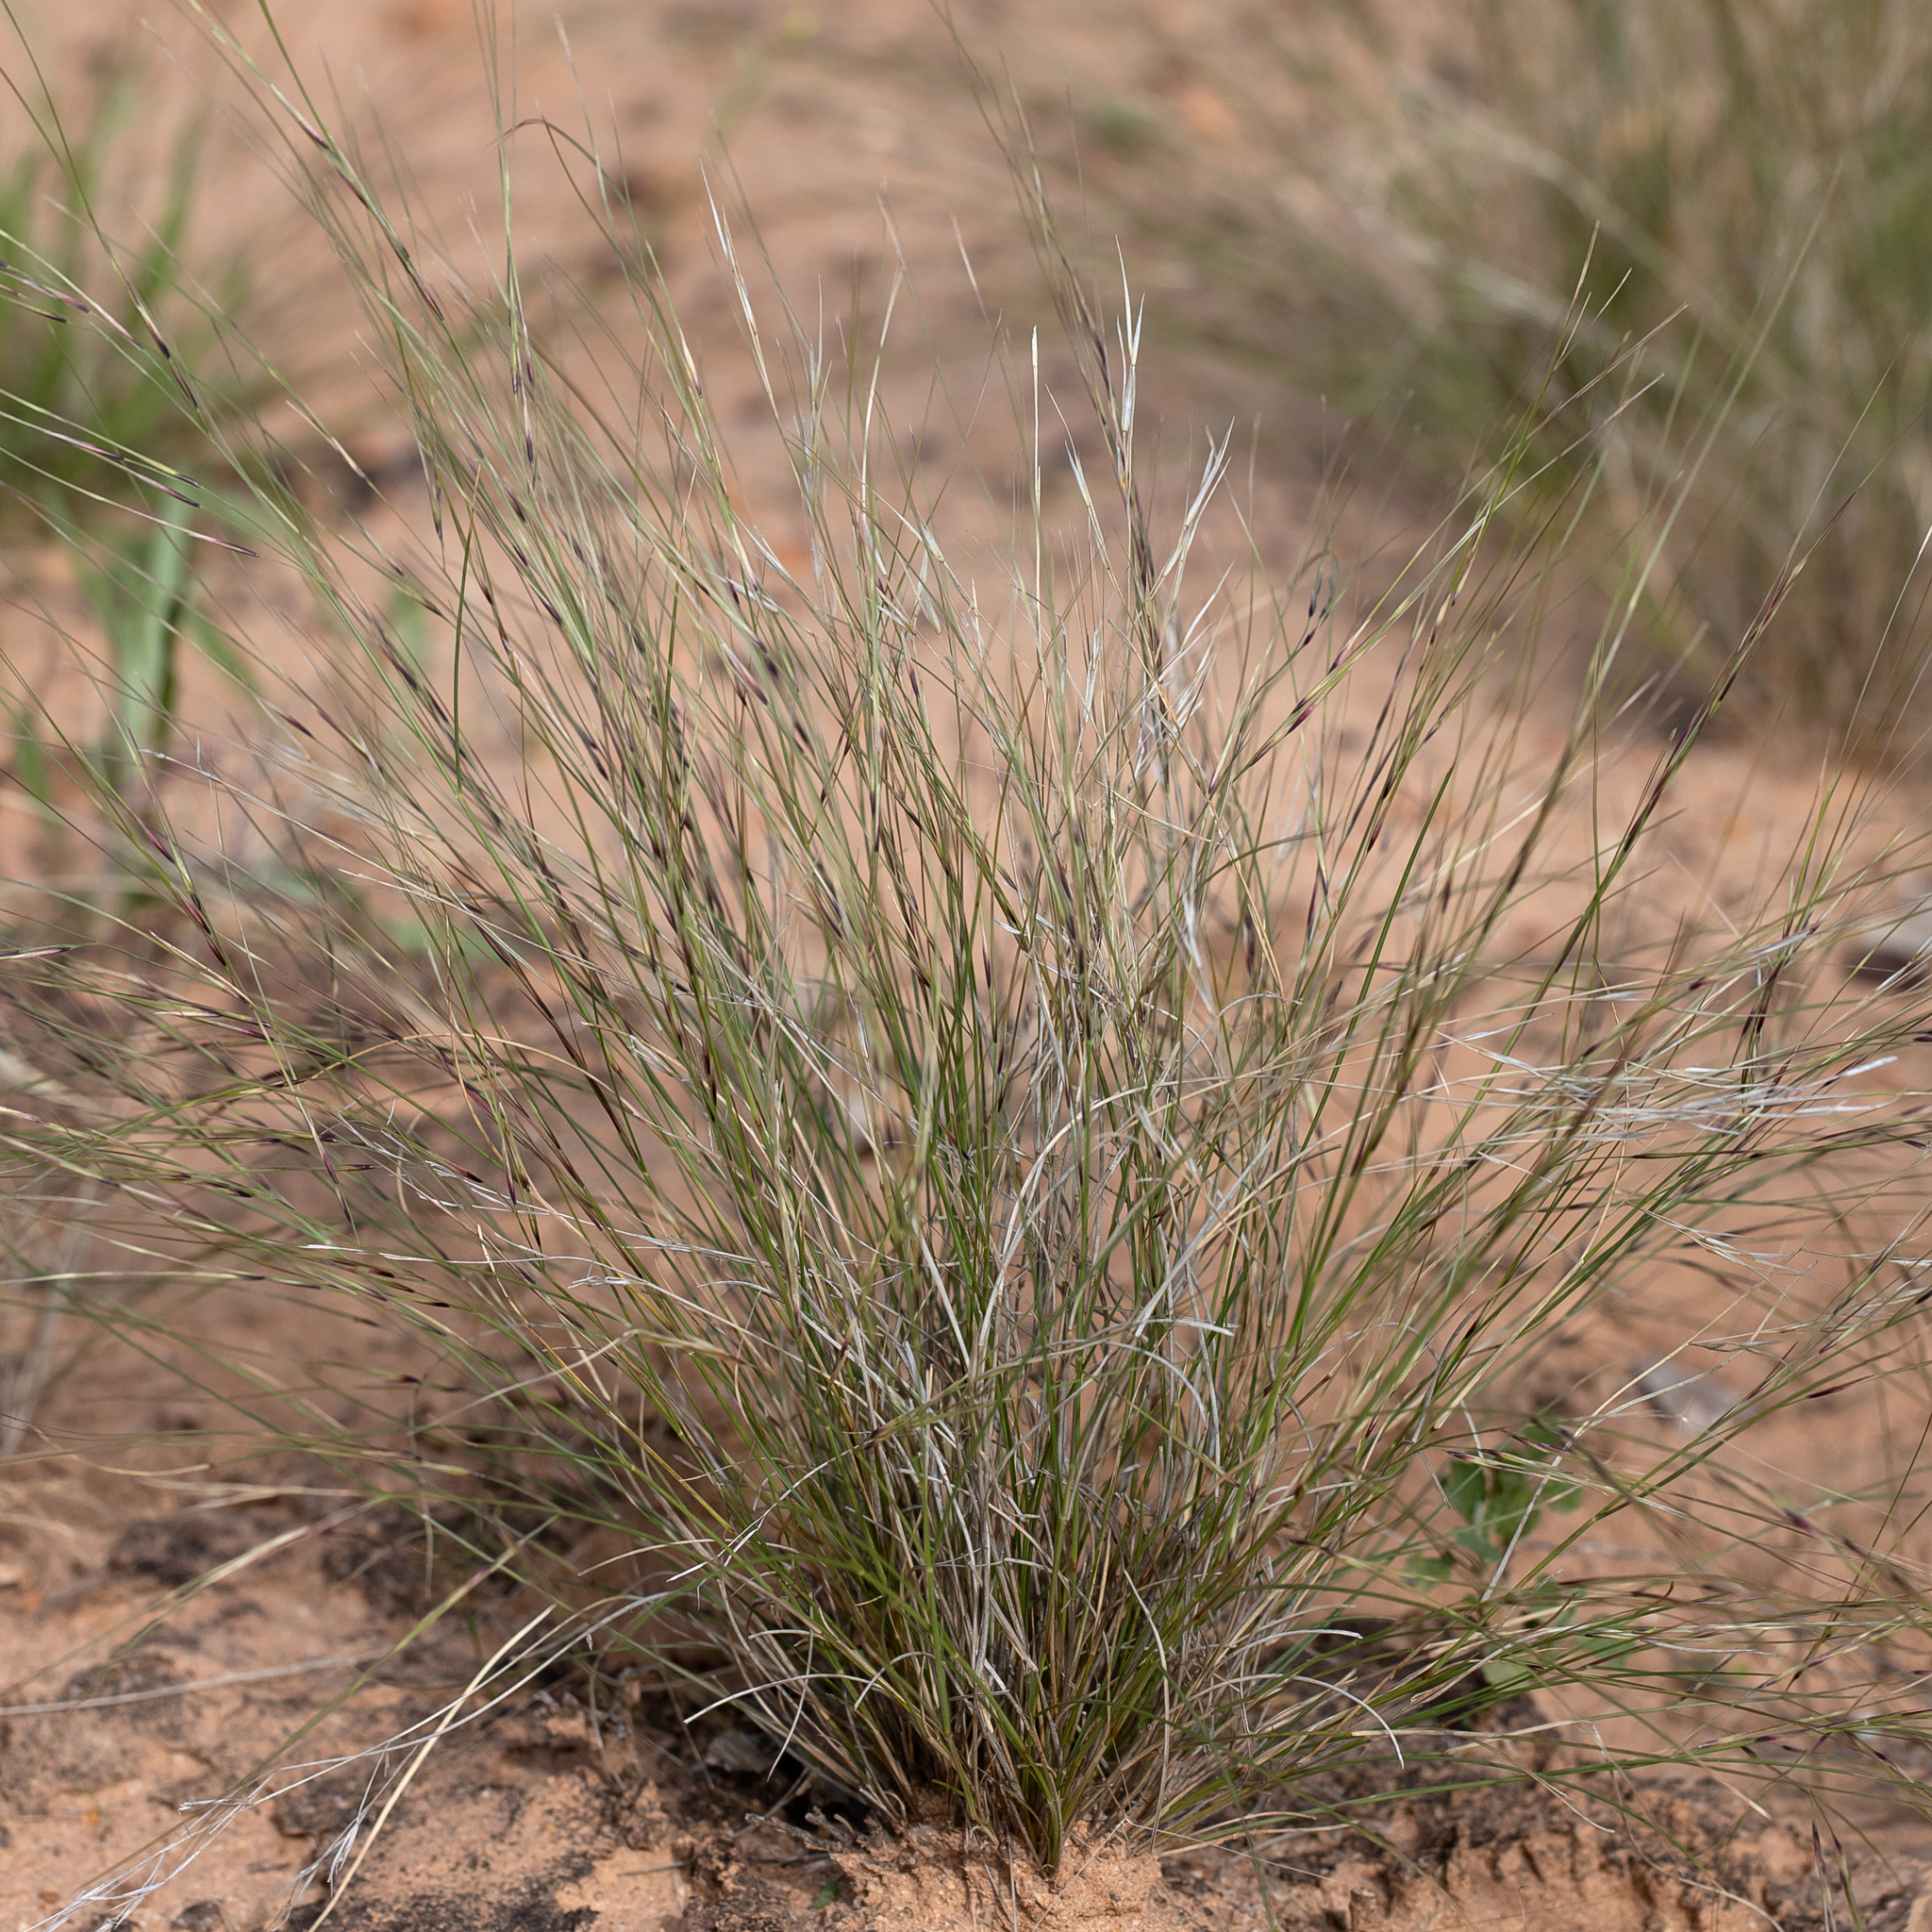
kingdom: Plantae
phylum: Tracheophyta
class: Liliopsida
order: Poales
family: Poaceae
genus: Aristida
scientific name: Aristida contorta
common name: Bunch kerosene grass
